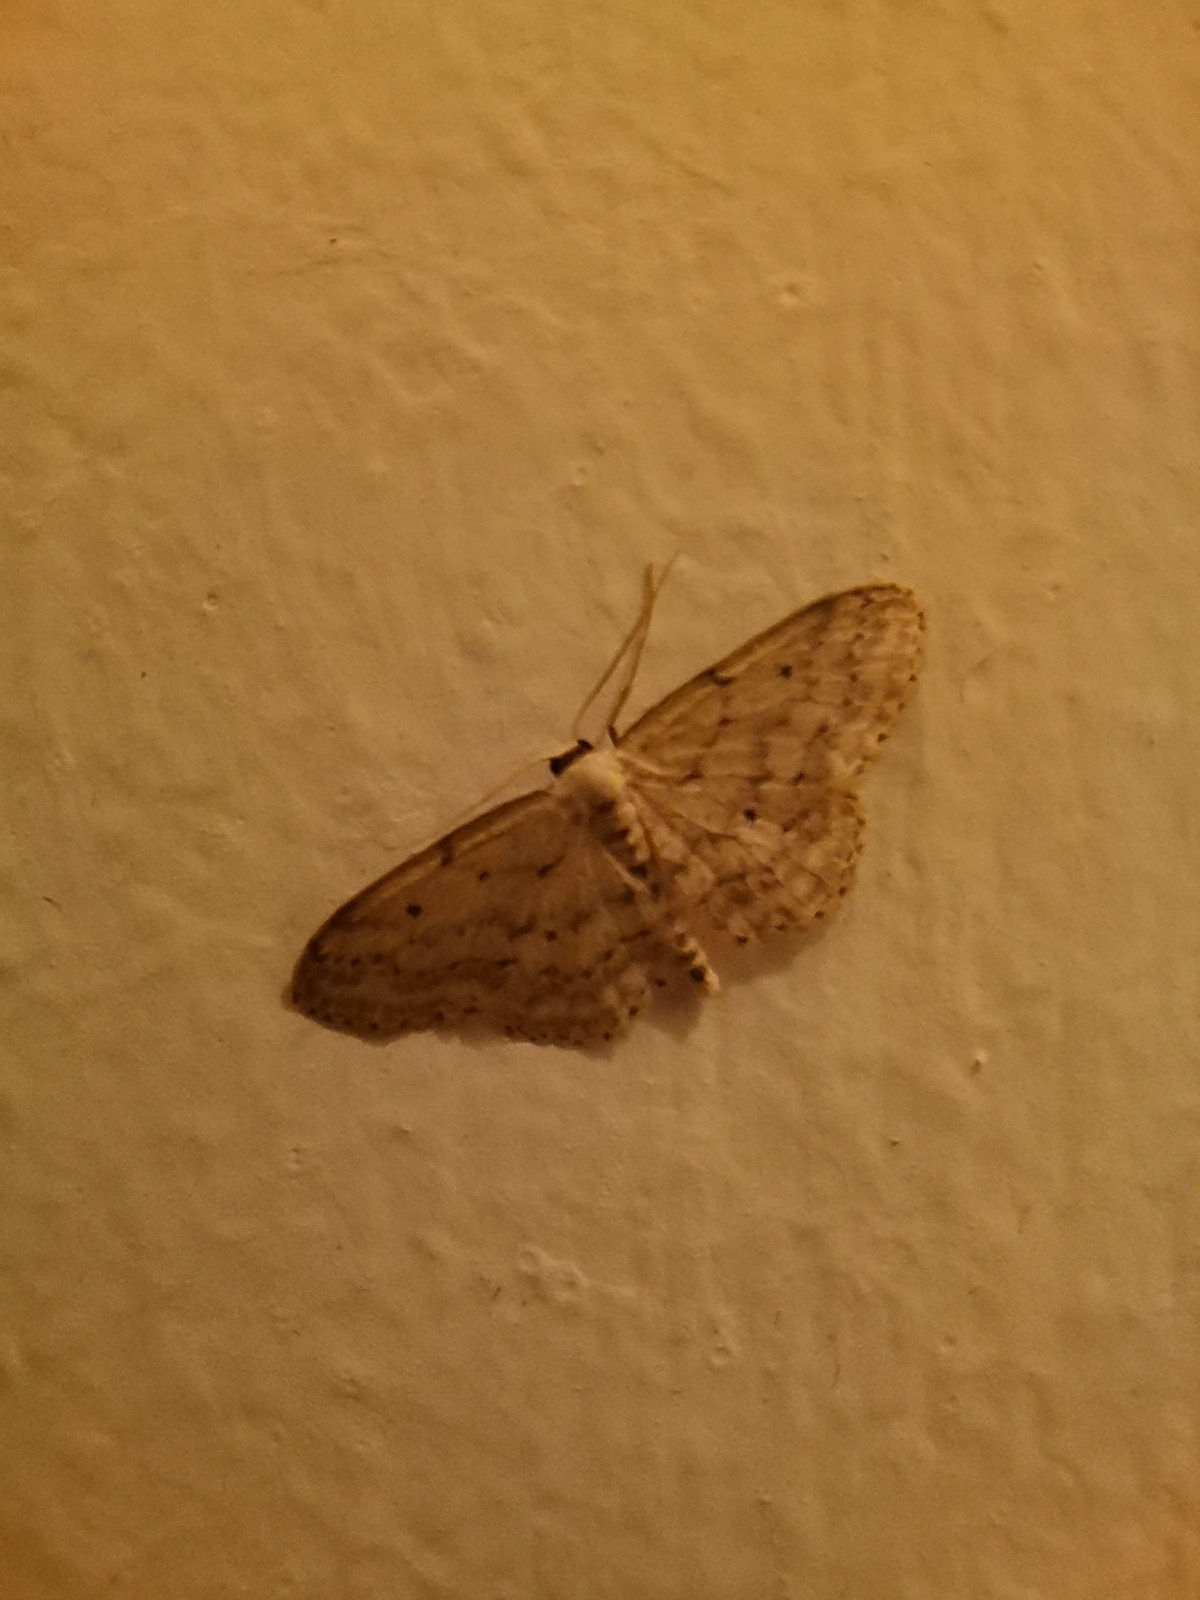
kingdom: Animalia
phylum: Arthropoda
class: Insecta
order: Lepidoptera
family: Geometridae
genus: Idaea
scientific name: Idaea seriata
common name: Small dusty wave
